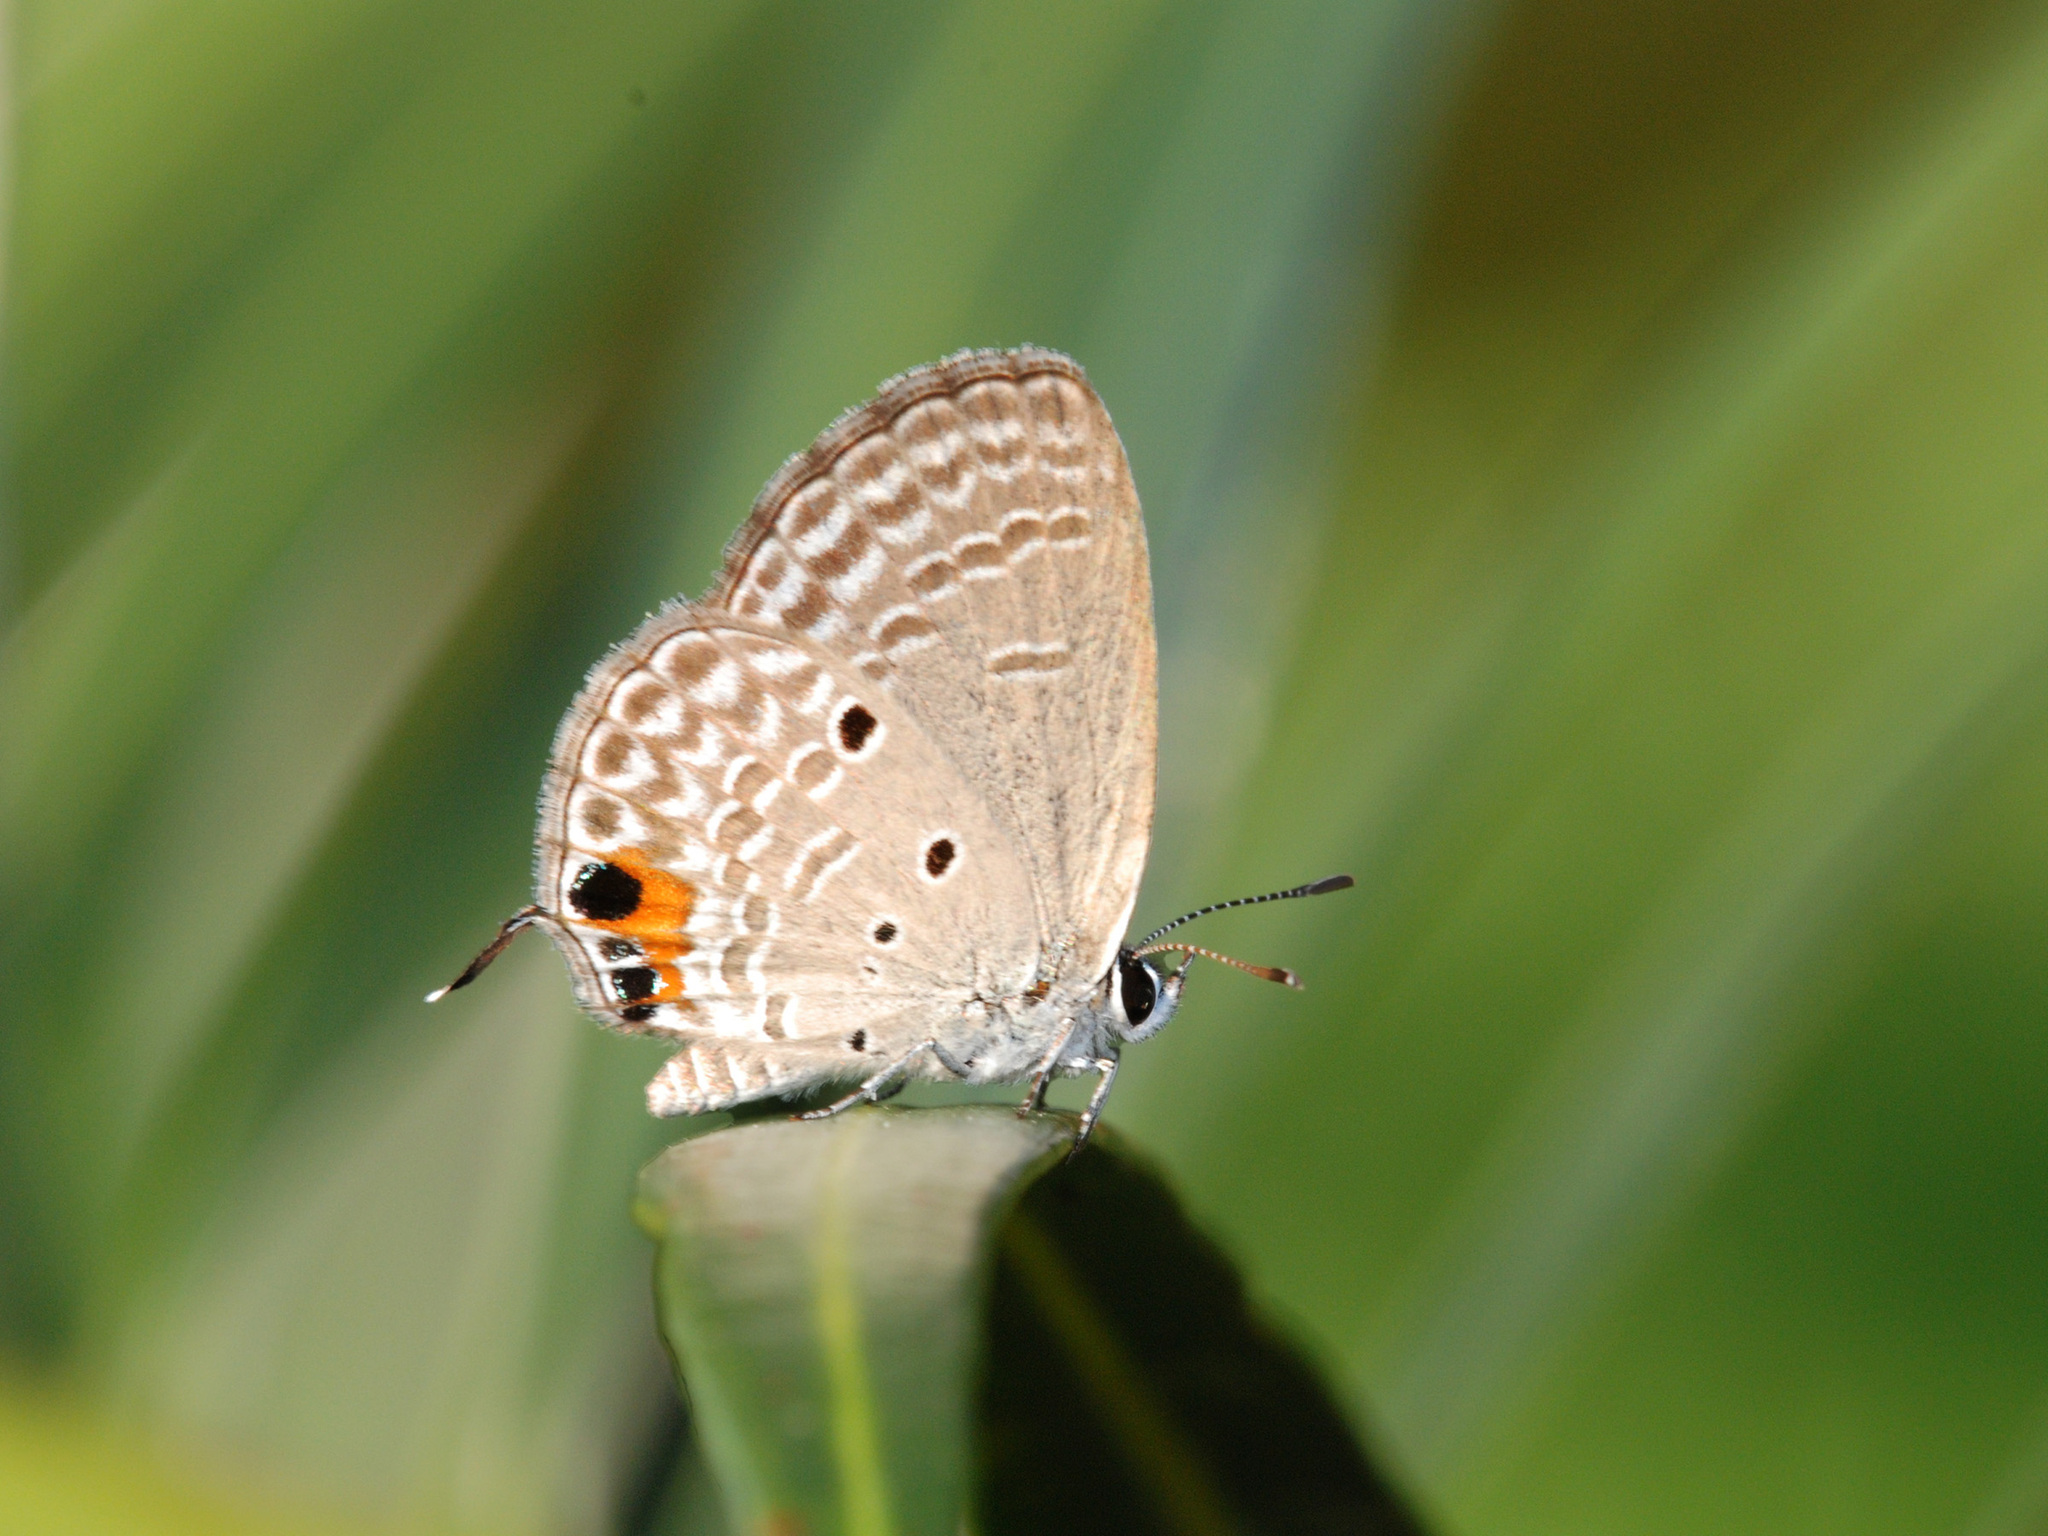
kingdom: Animalia
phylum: Arthropoda
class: Insecta
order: Lepidoptera
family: Lycaenidae
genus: Luthrodes
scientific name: Luthrodes pandava
